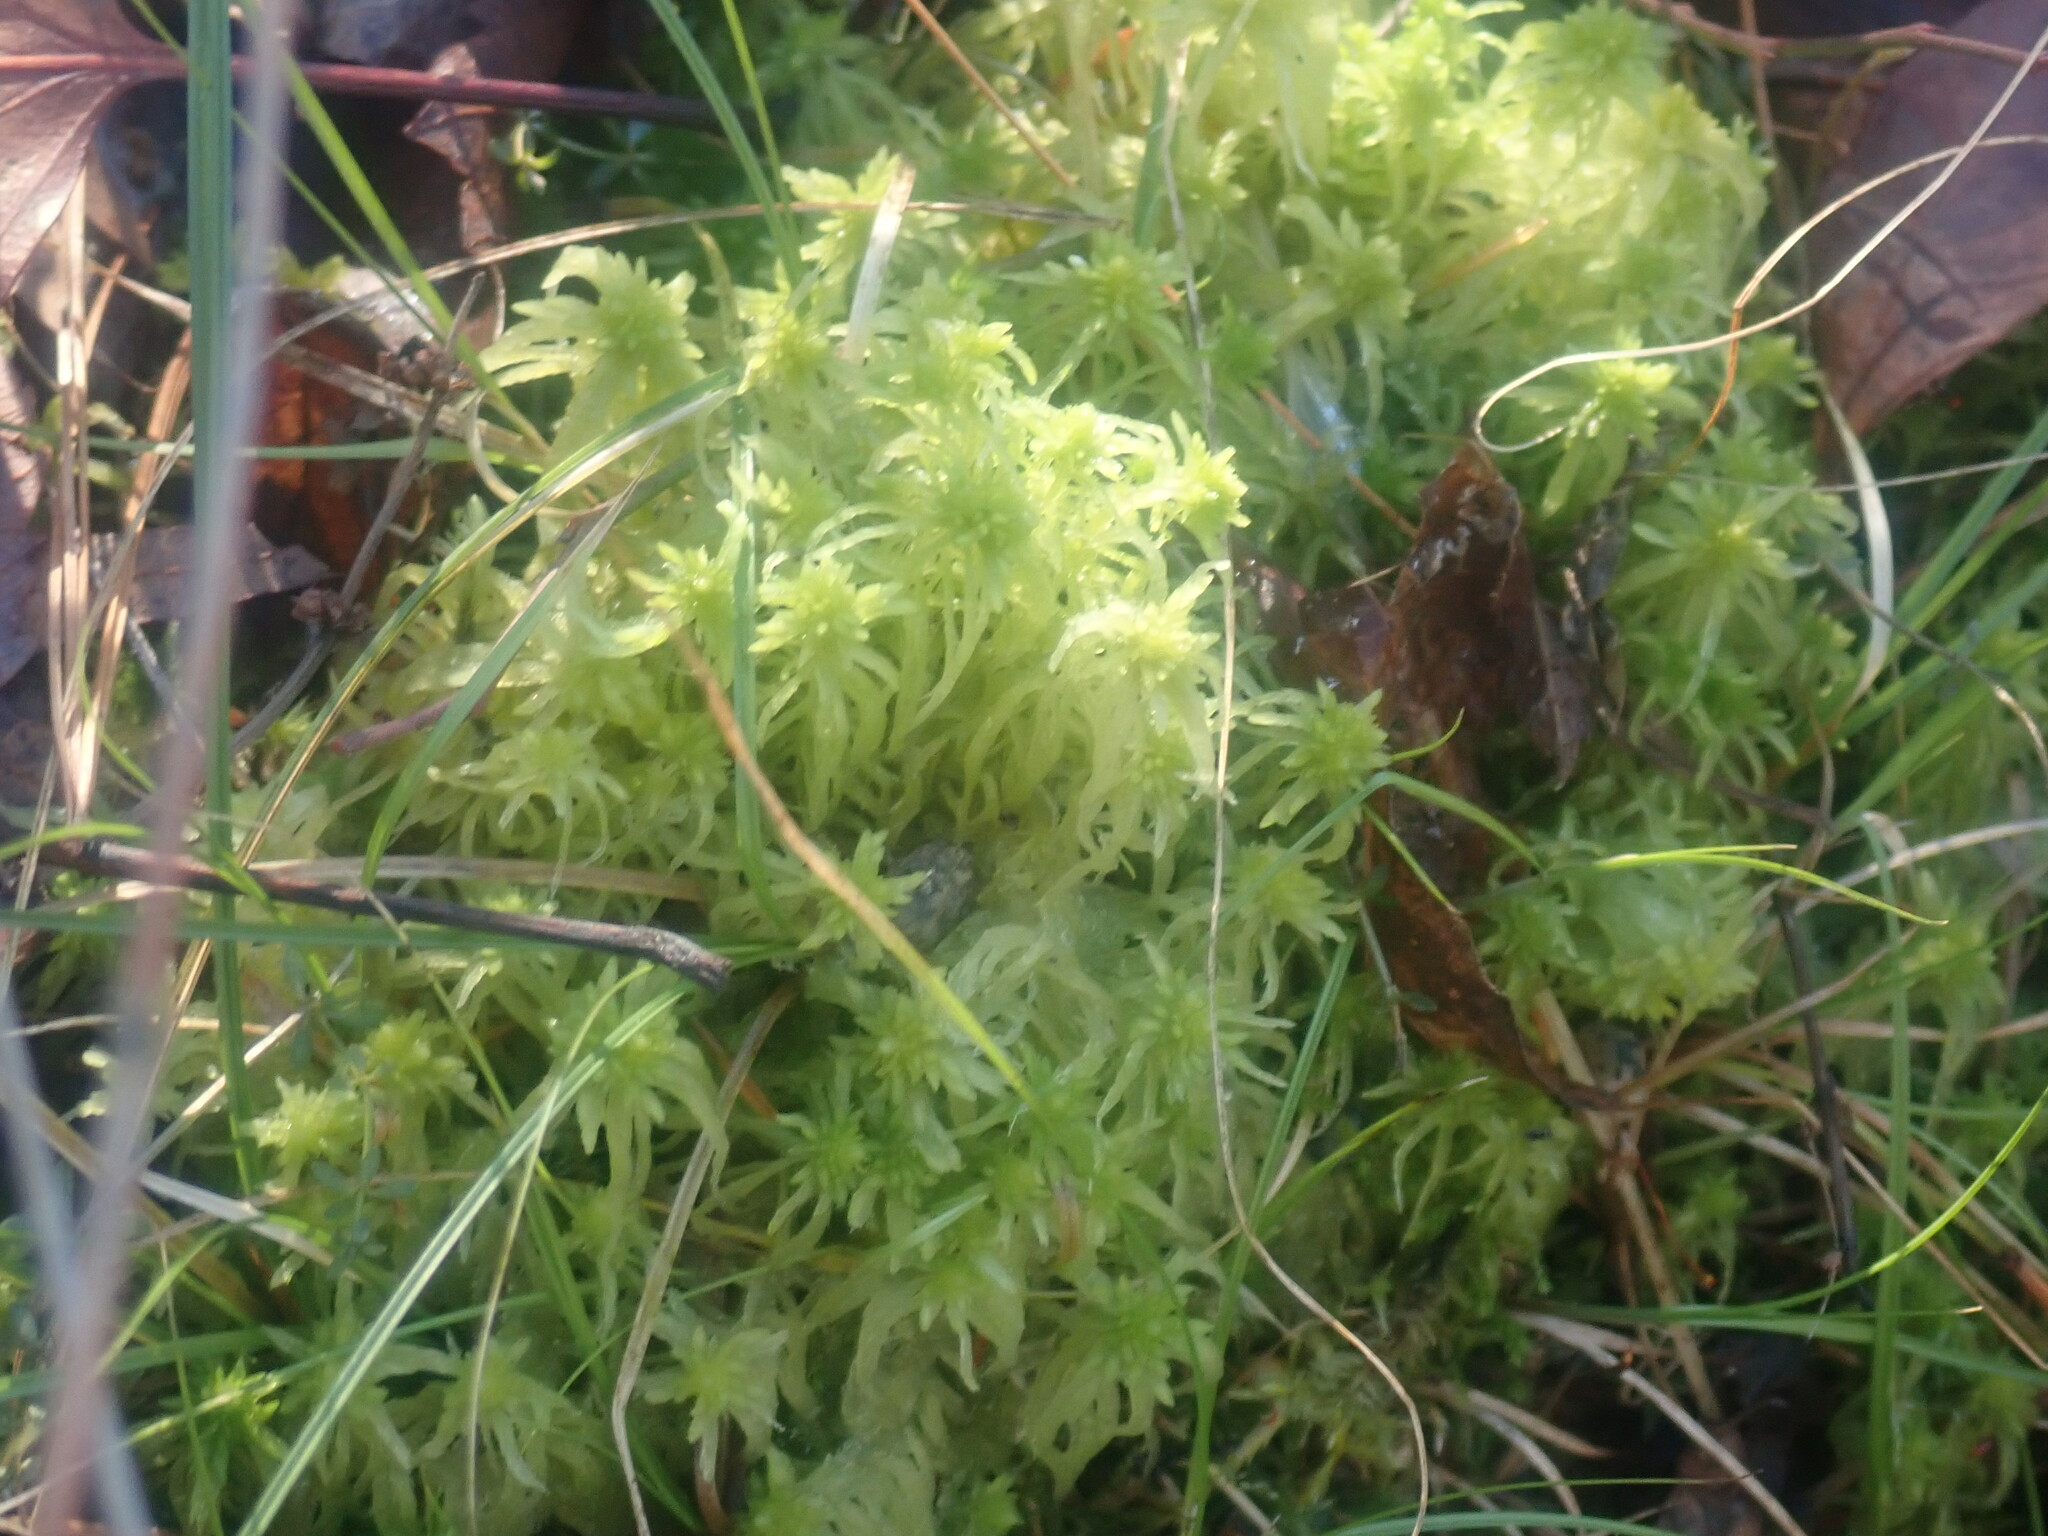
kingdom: Plantae
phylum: Bryophyta
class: Sphagnopsida
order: Sphagnales
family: Sphagnaceae
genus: Sphagnum
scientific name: Sphagnum
